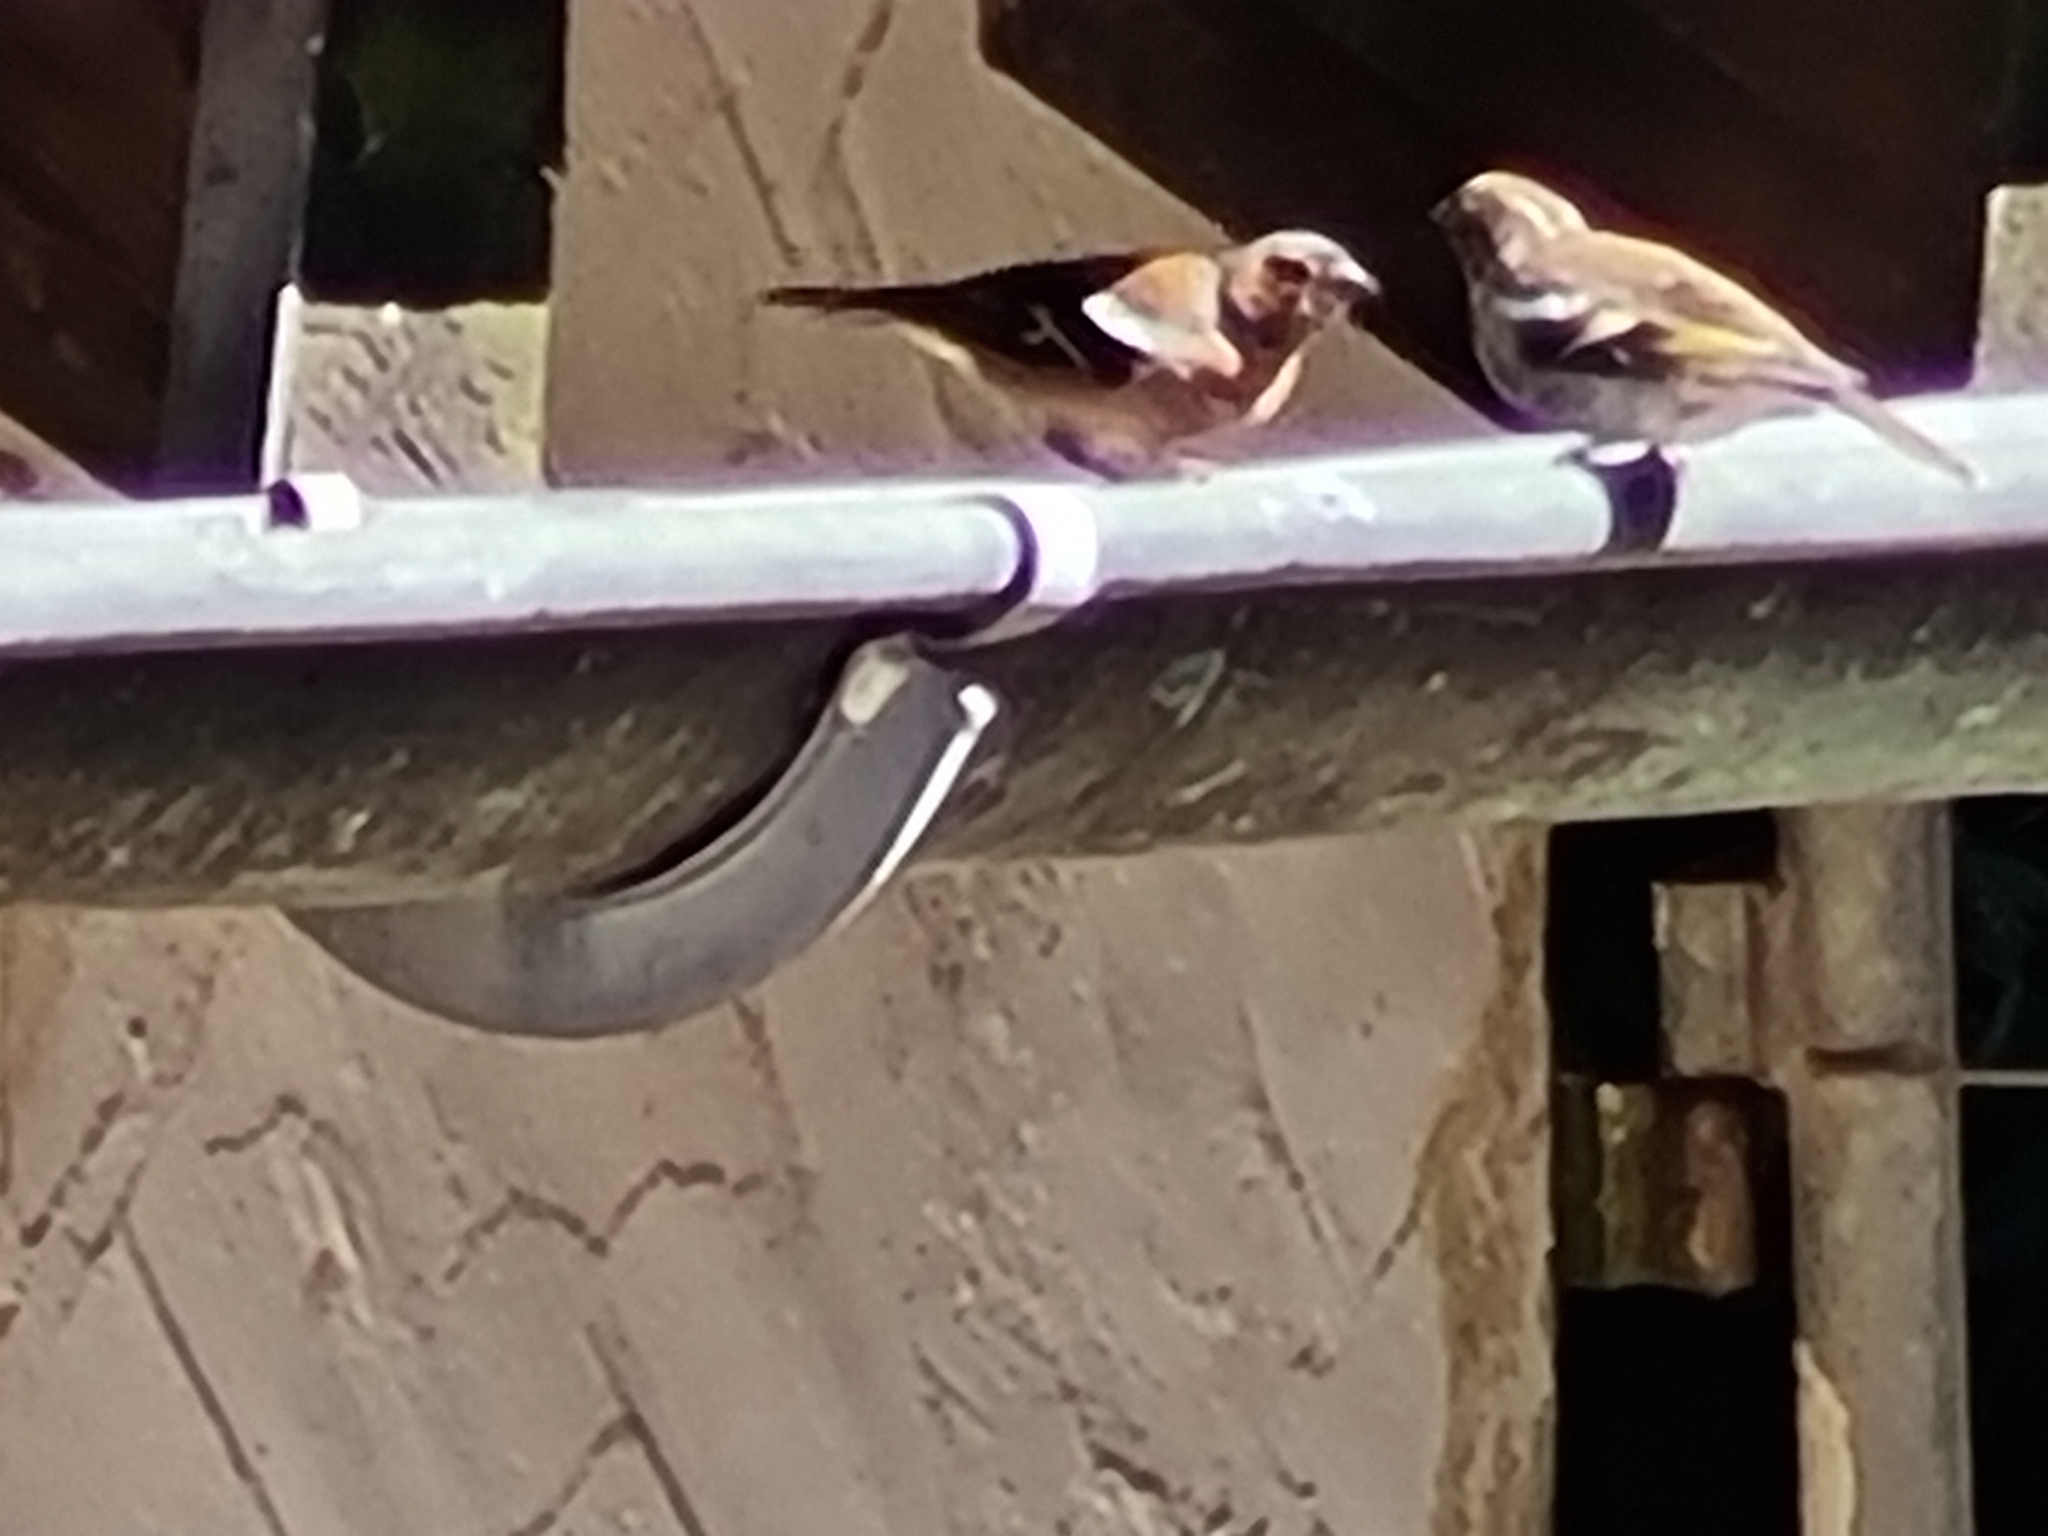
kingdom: Animalia
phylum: Chordata
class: Aves
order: Passeriformes
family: Fringillidae
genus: Fringilla
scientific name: Fringilla coelebs
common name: Common chaffinch
